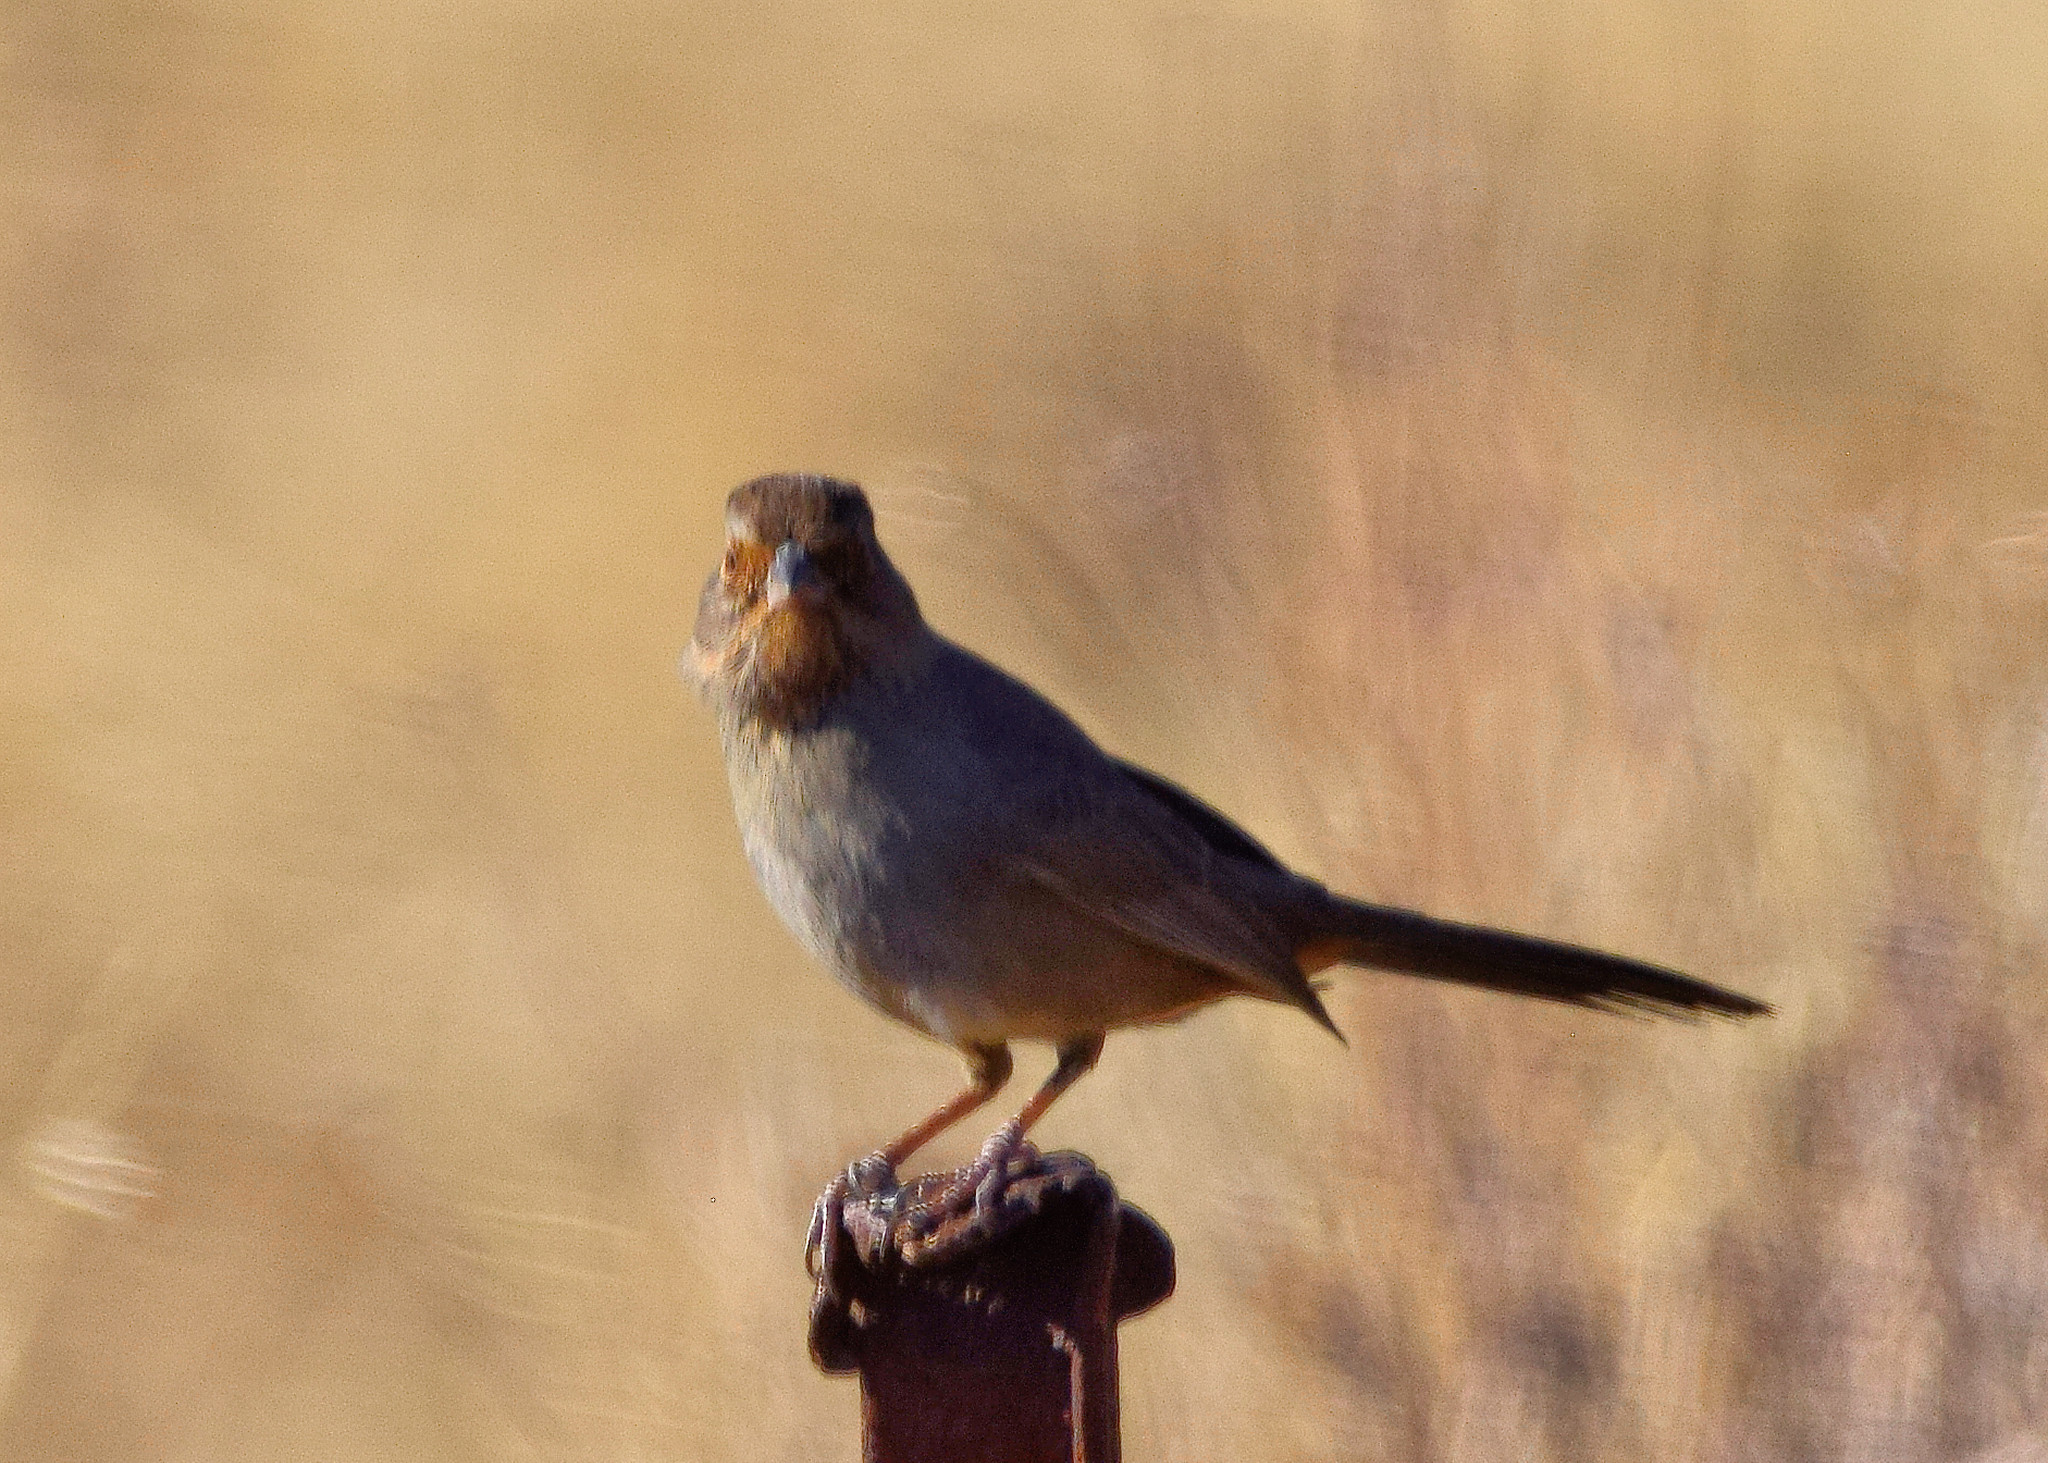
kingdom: Animalia
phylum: Chordata
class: Aves
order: Passeriformes
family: Passerellidae
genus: Melozone
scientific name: Melozone crissalis
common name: California towhee
